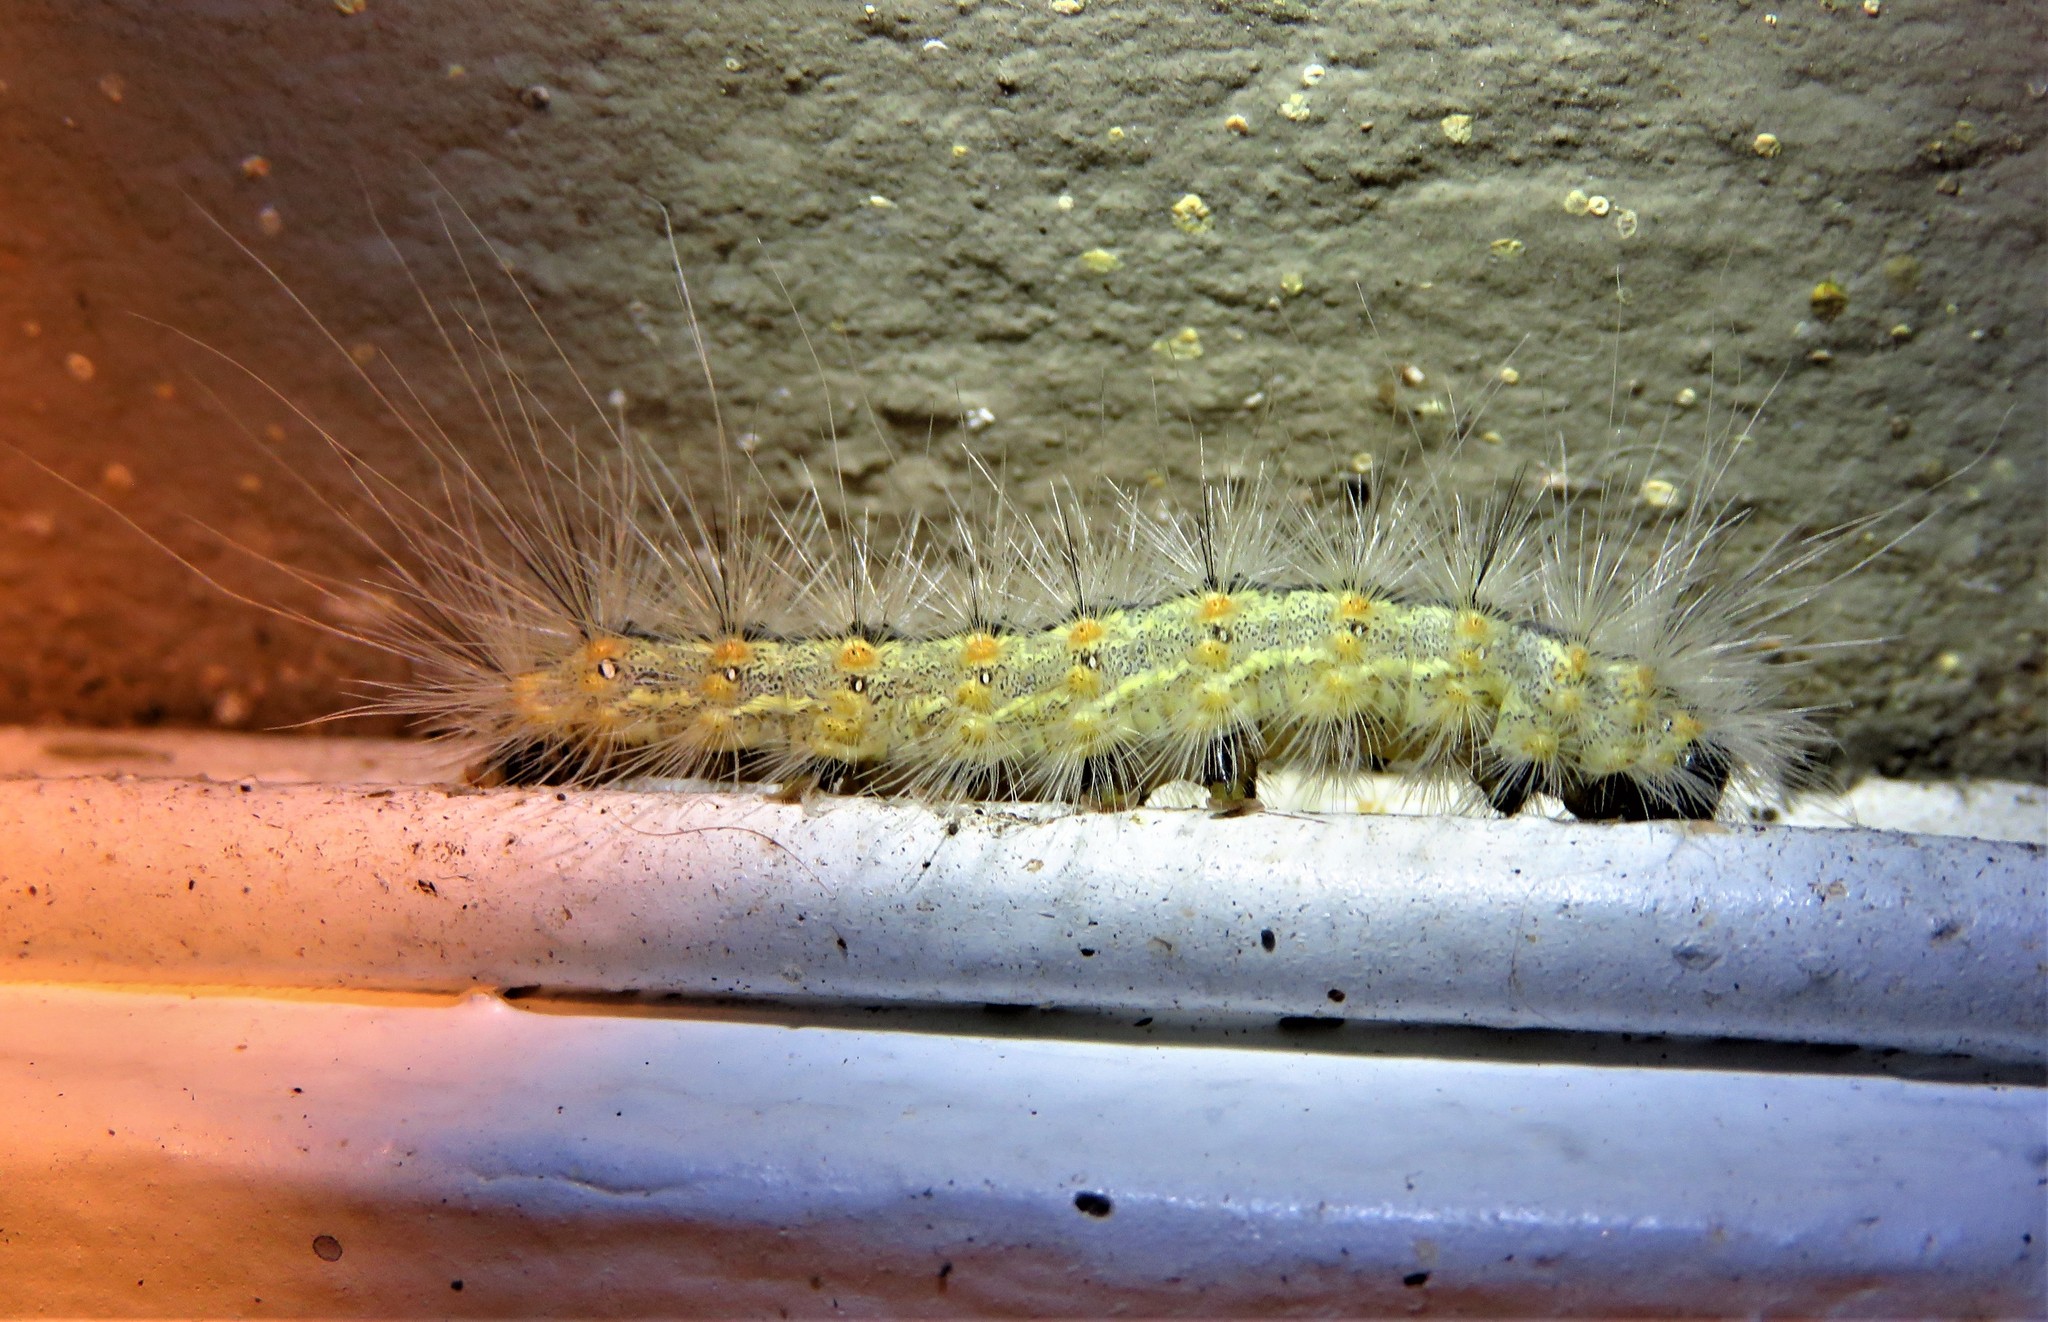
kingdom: Animalia
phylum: Arthropoda
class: Insecta
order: Lepidoptera
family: Erebidae
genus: Hyphantria
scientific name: Hyphantria cunea
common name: American white moth
